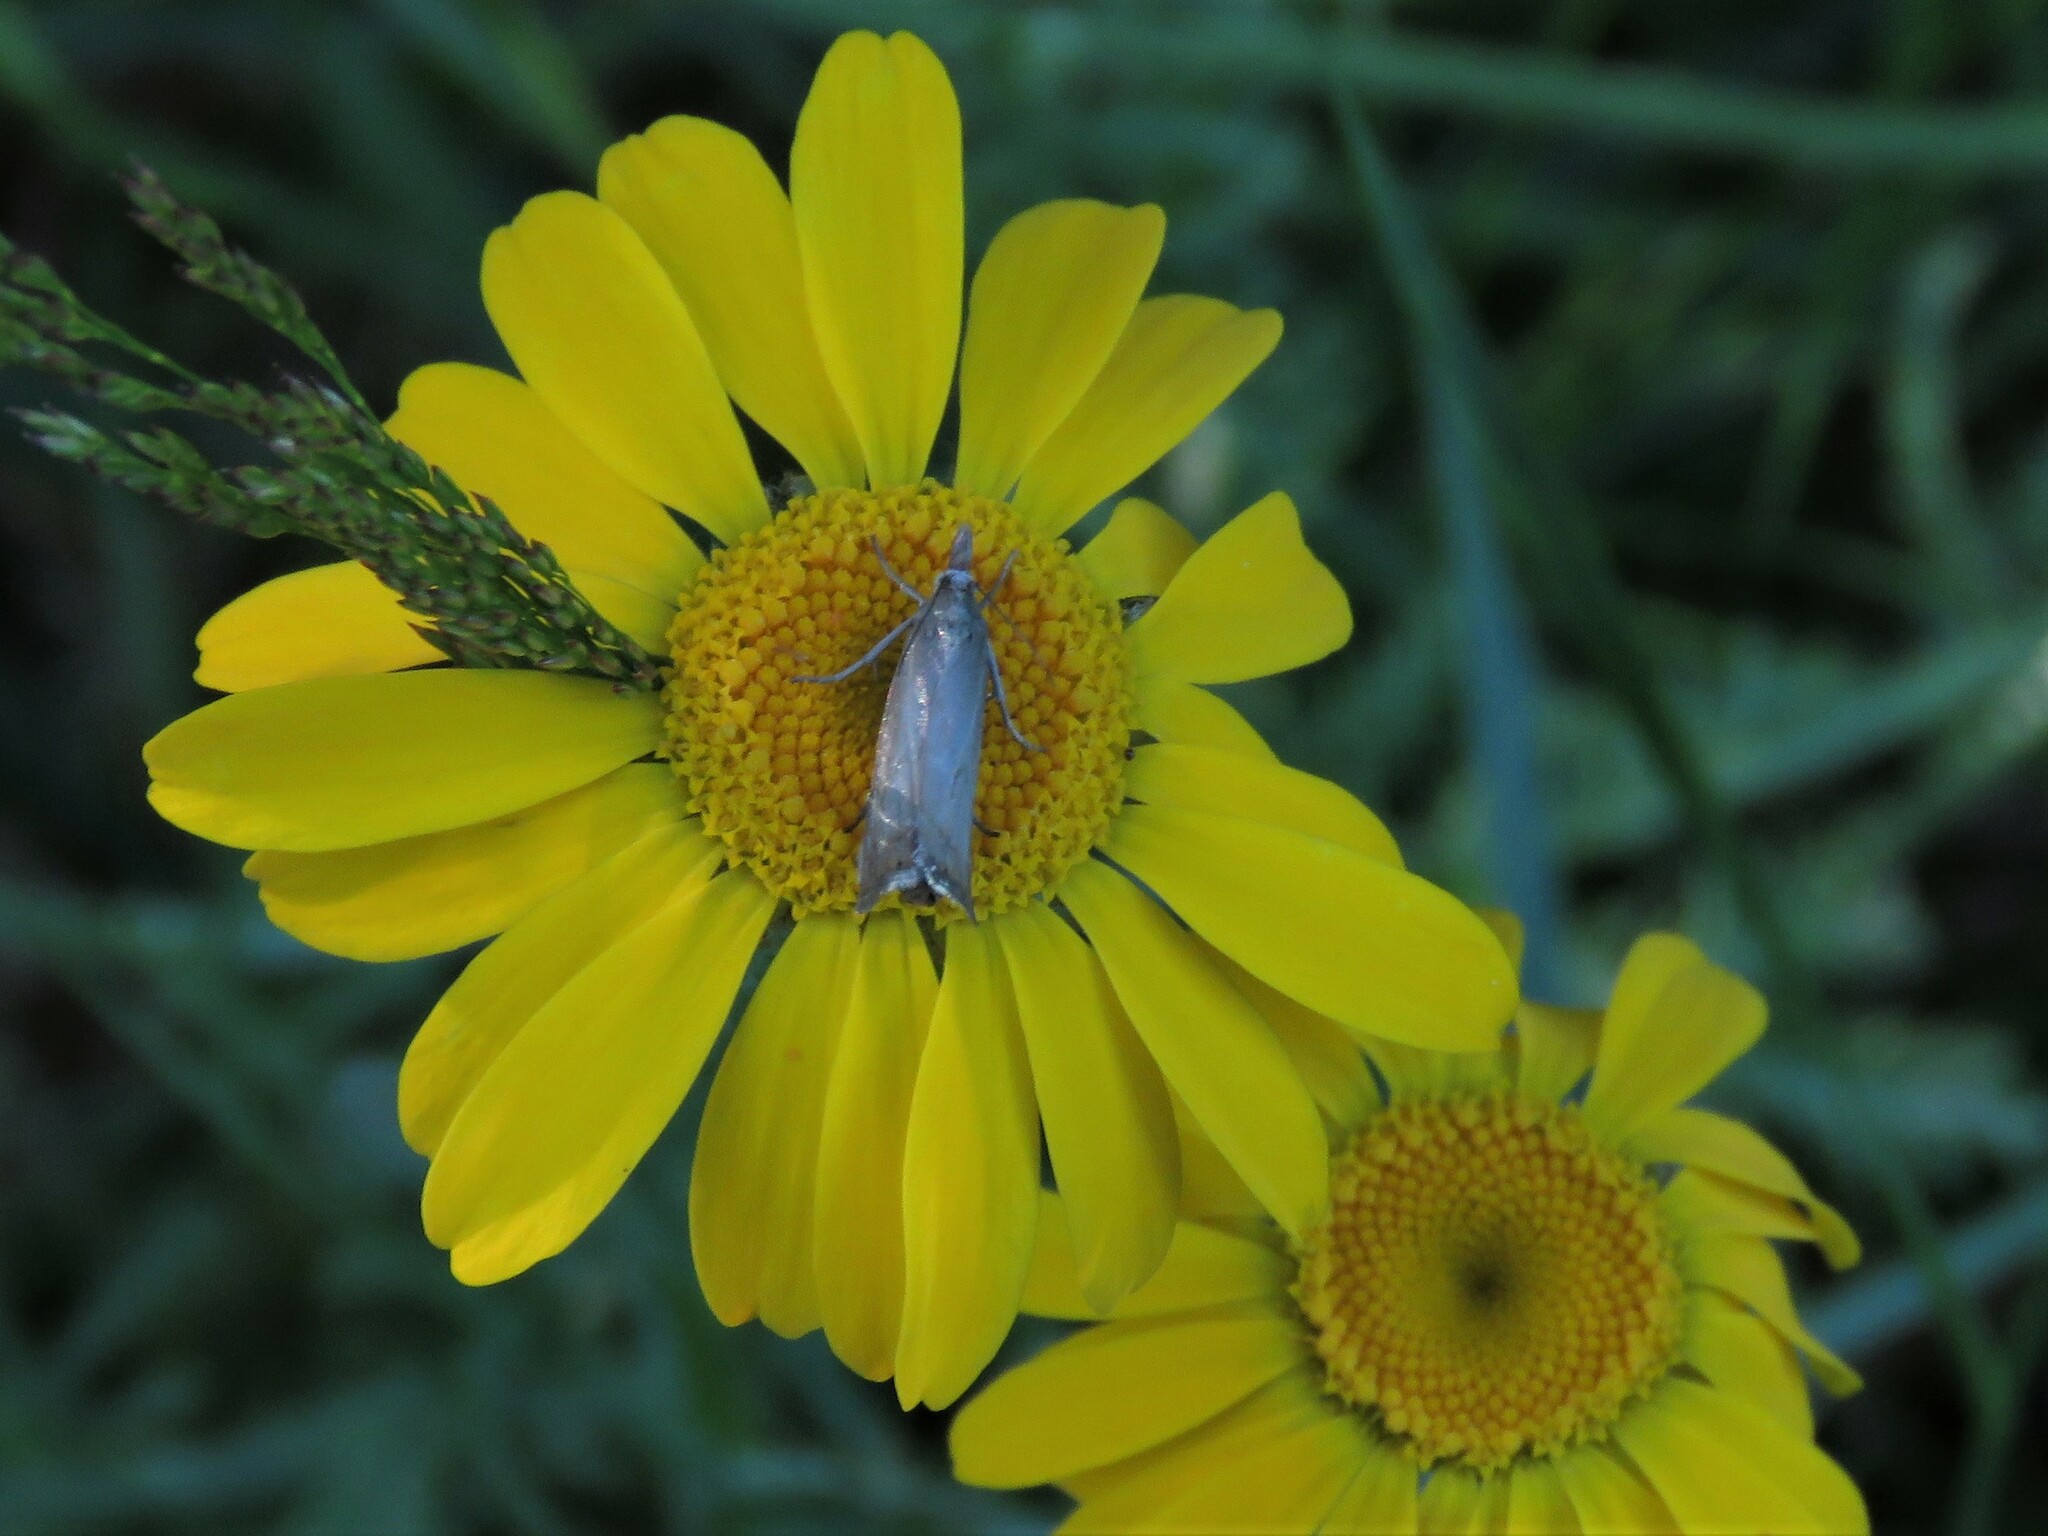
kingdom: Animalia
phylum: Arthropoda
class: Insecta
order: Lepidoptera
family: Crambidae
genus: Chrysoteuchia
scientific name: Chrysoteuchia culmella
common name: Garden grass-veneer
